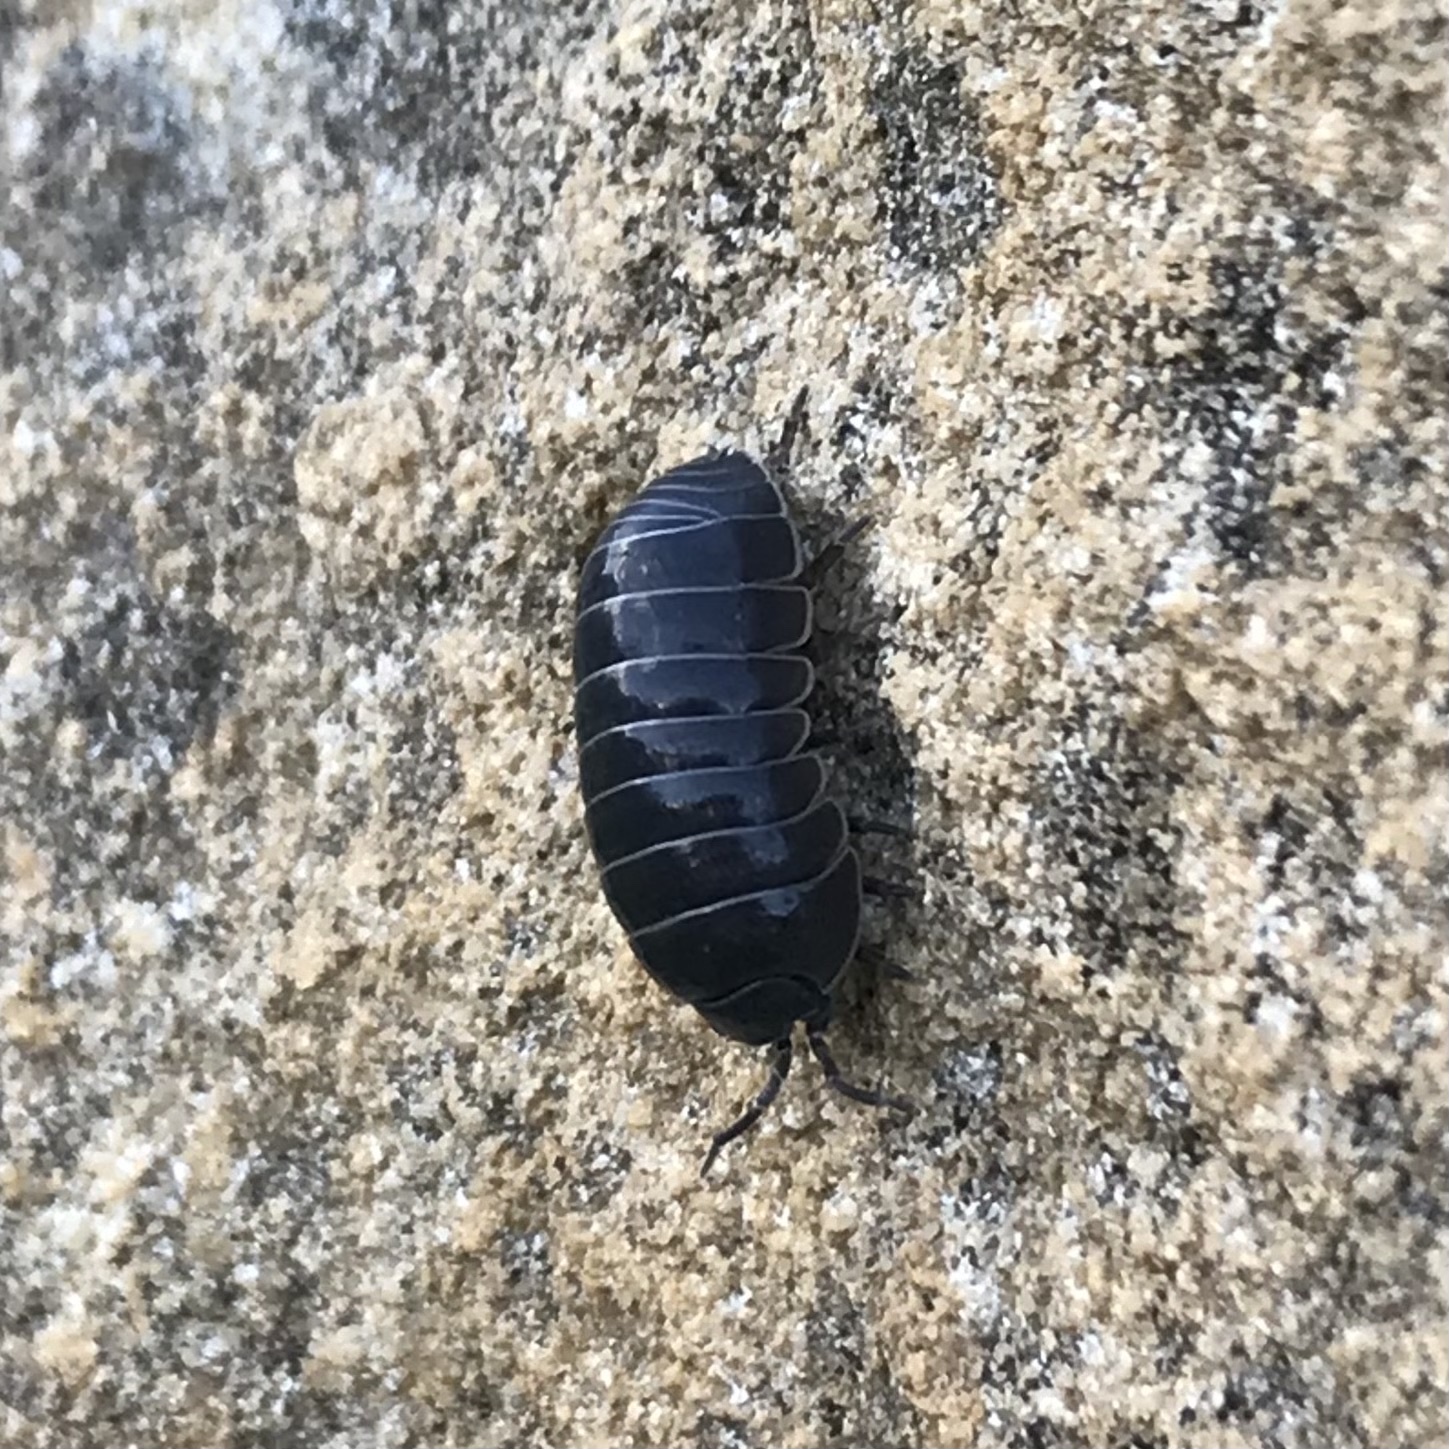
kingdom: Animalia
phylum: Arthropoda
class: Malacostraca
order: Isopoda
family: Armadillidiidae
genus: Armadillidium
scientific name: Armadillidium vulgare
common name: Common pill woodlouse
